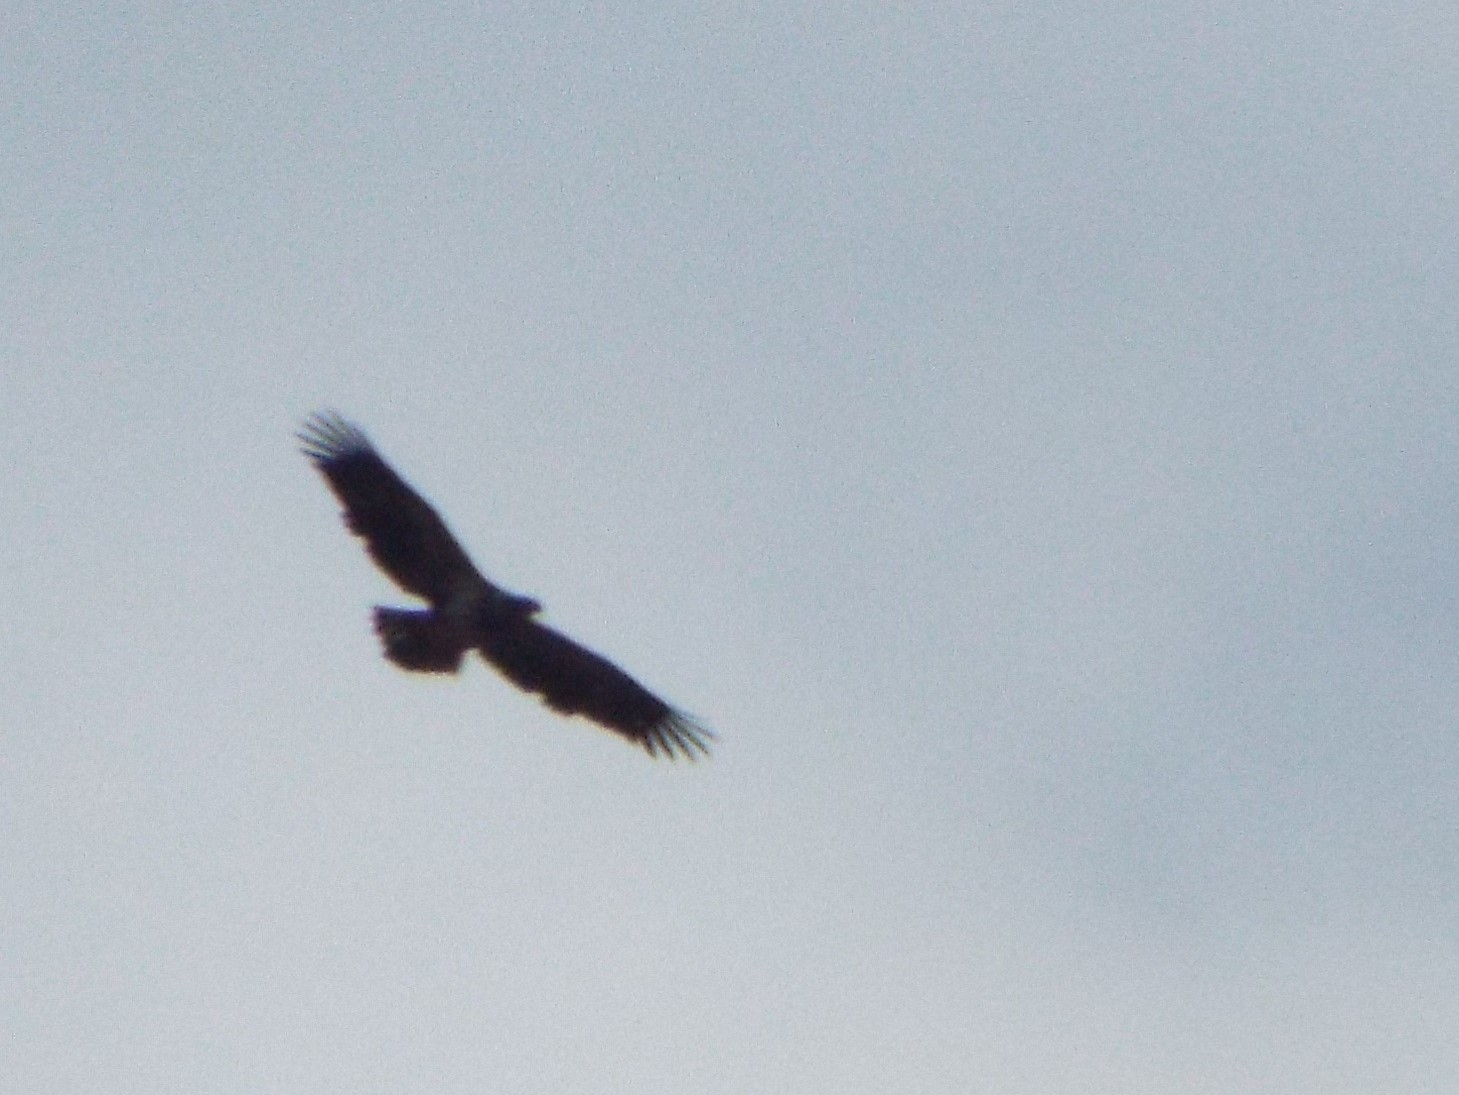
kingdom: Animalia
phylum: Chordata
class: Aves
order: Accipitriformes
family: Accipitridae
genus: Haliaeetus
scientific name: Haliaeetus leucocephalus
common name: Bald eagle
